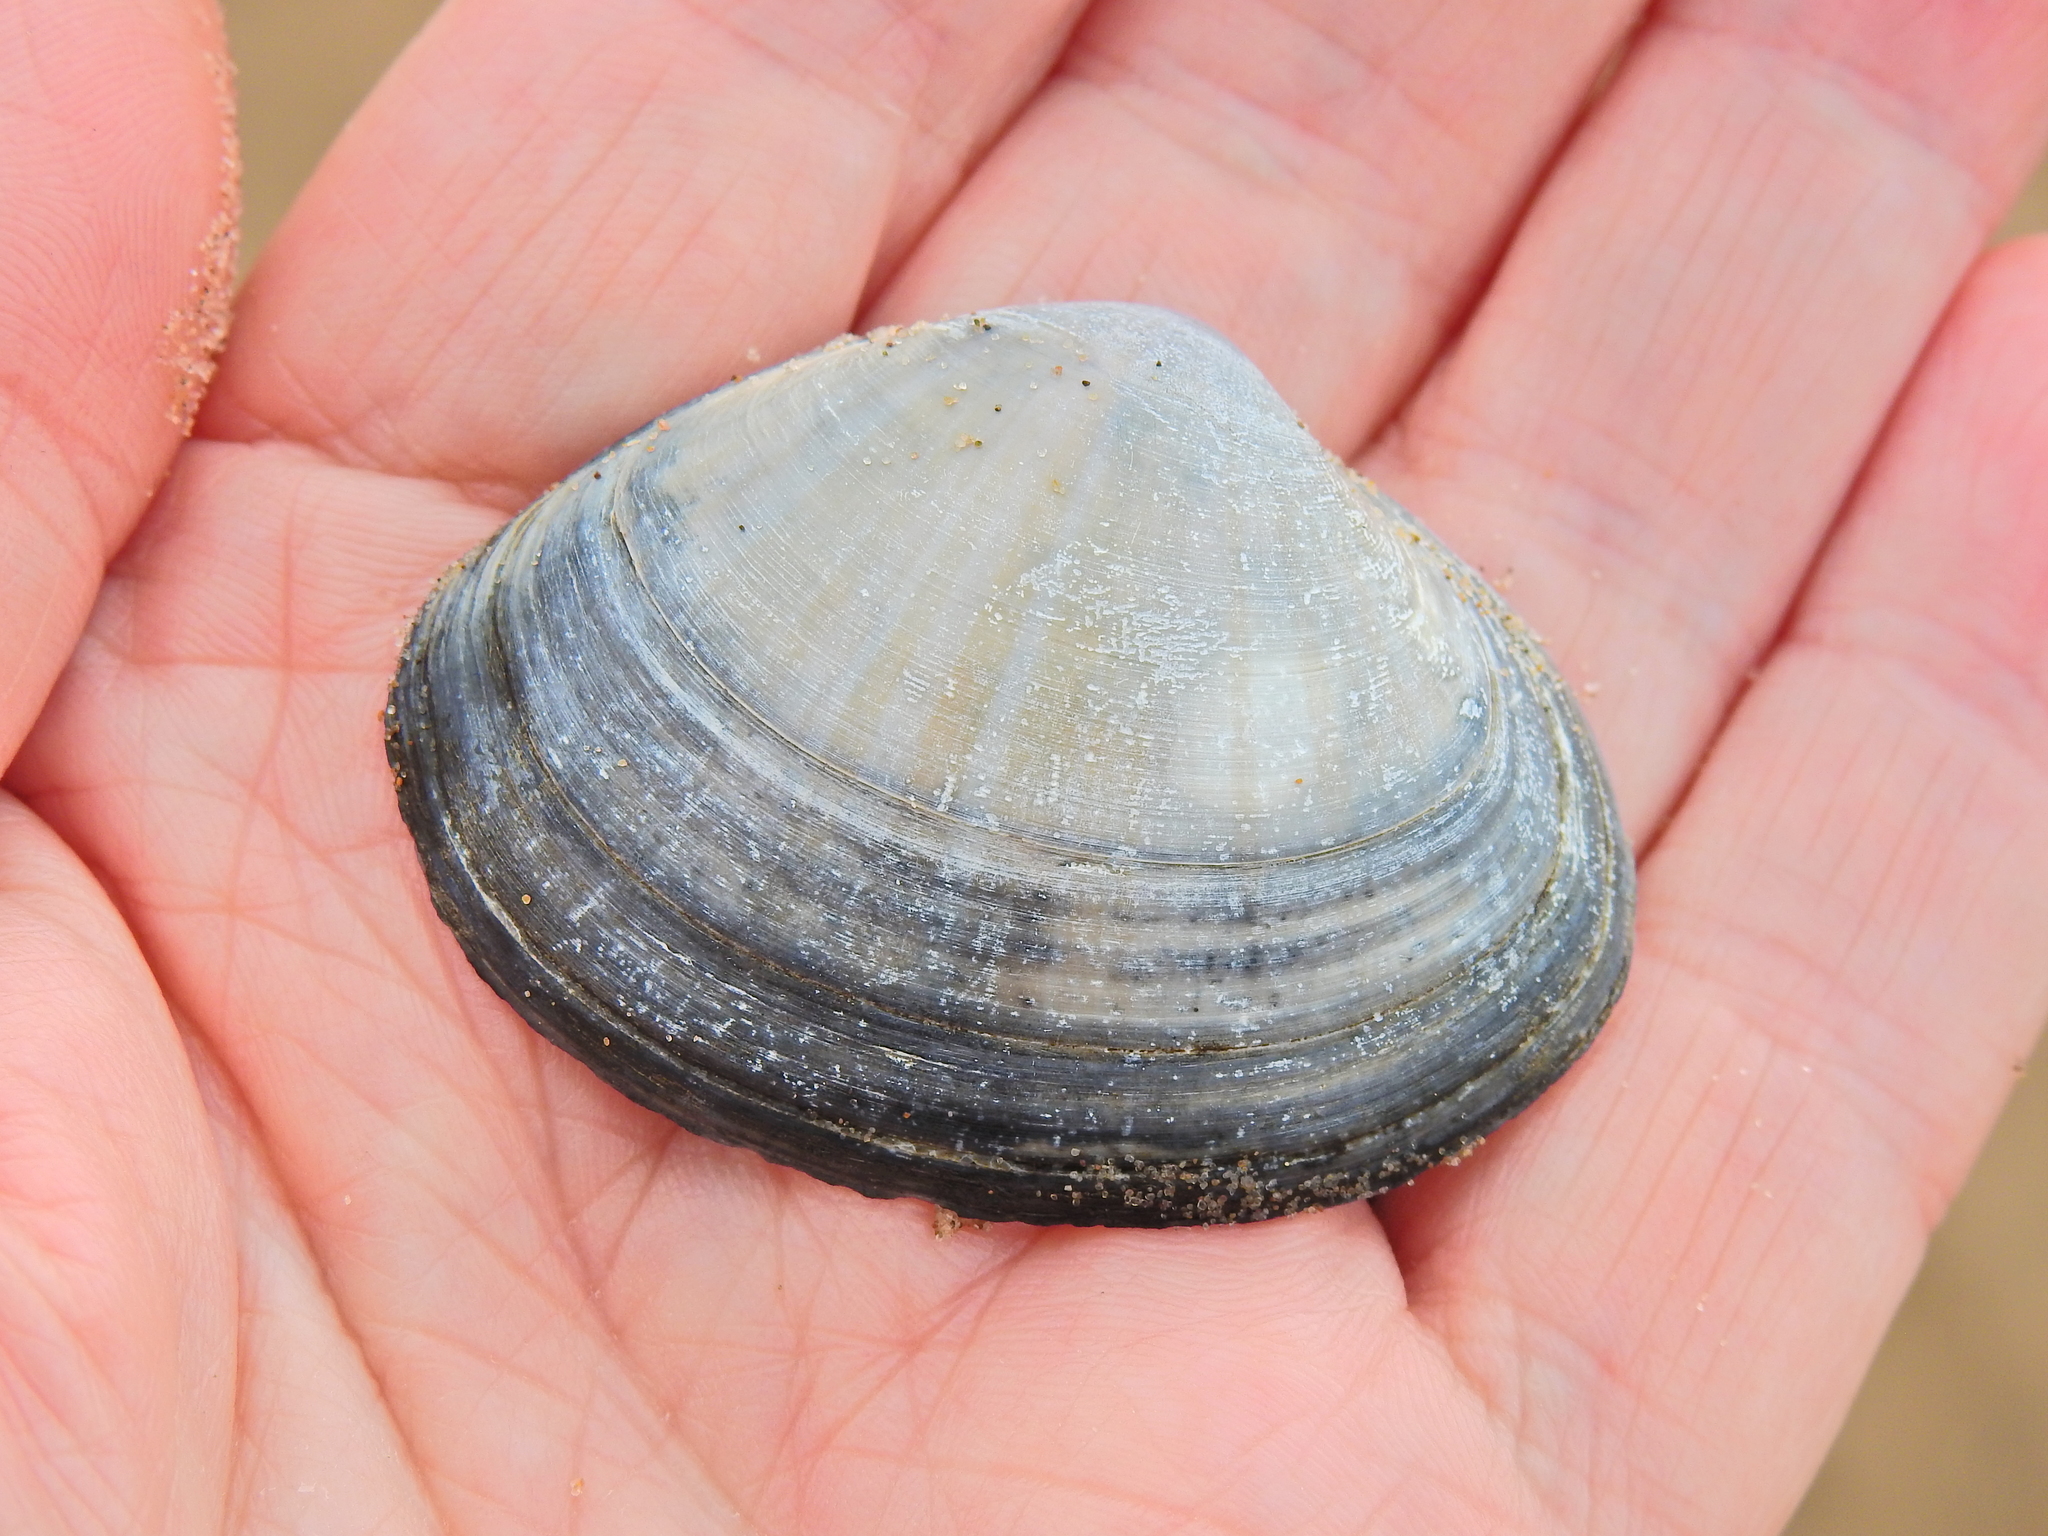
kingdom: Animalia
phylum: Mollusca
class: Bivalvia
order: Venerida
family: Mactridae
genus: Mactra
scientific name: Mactra stultorum
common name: Rayed trough shell
